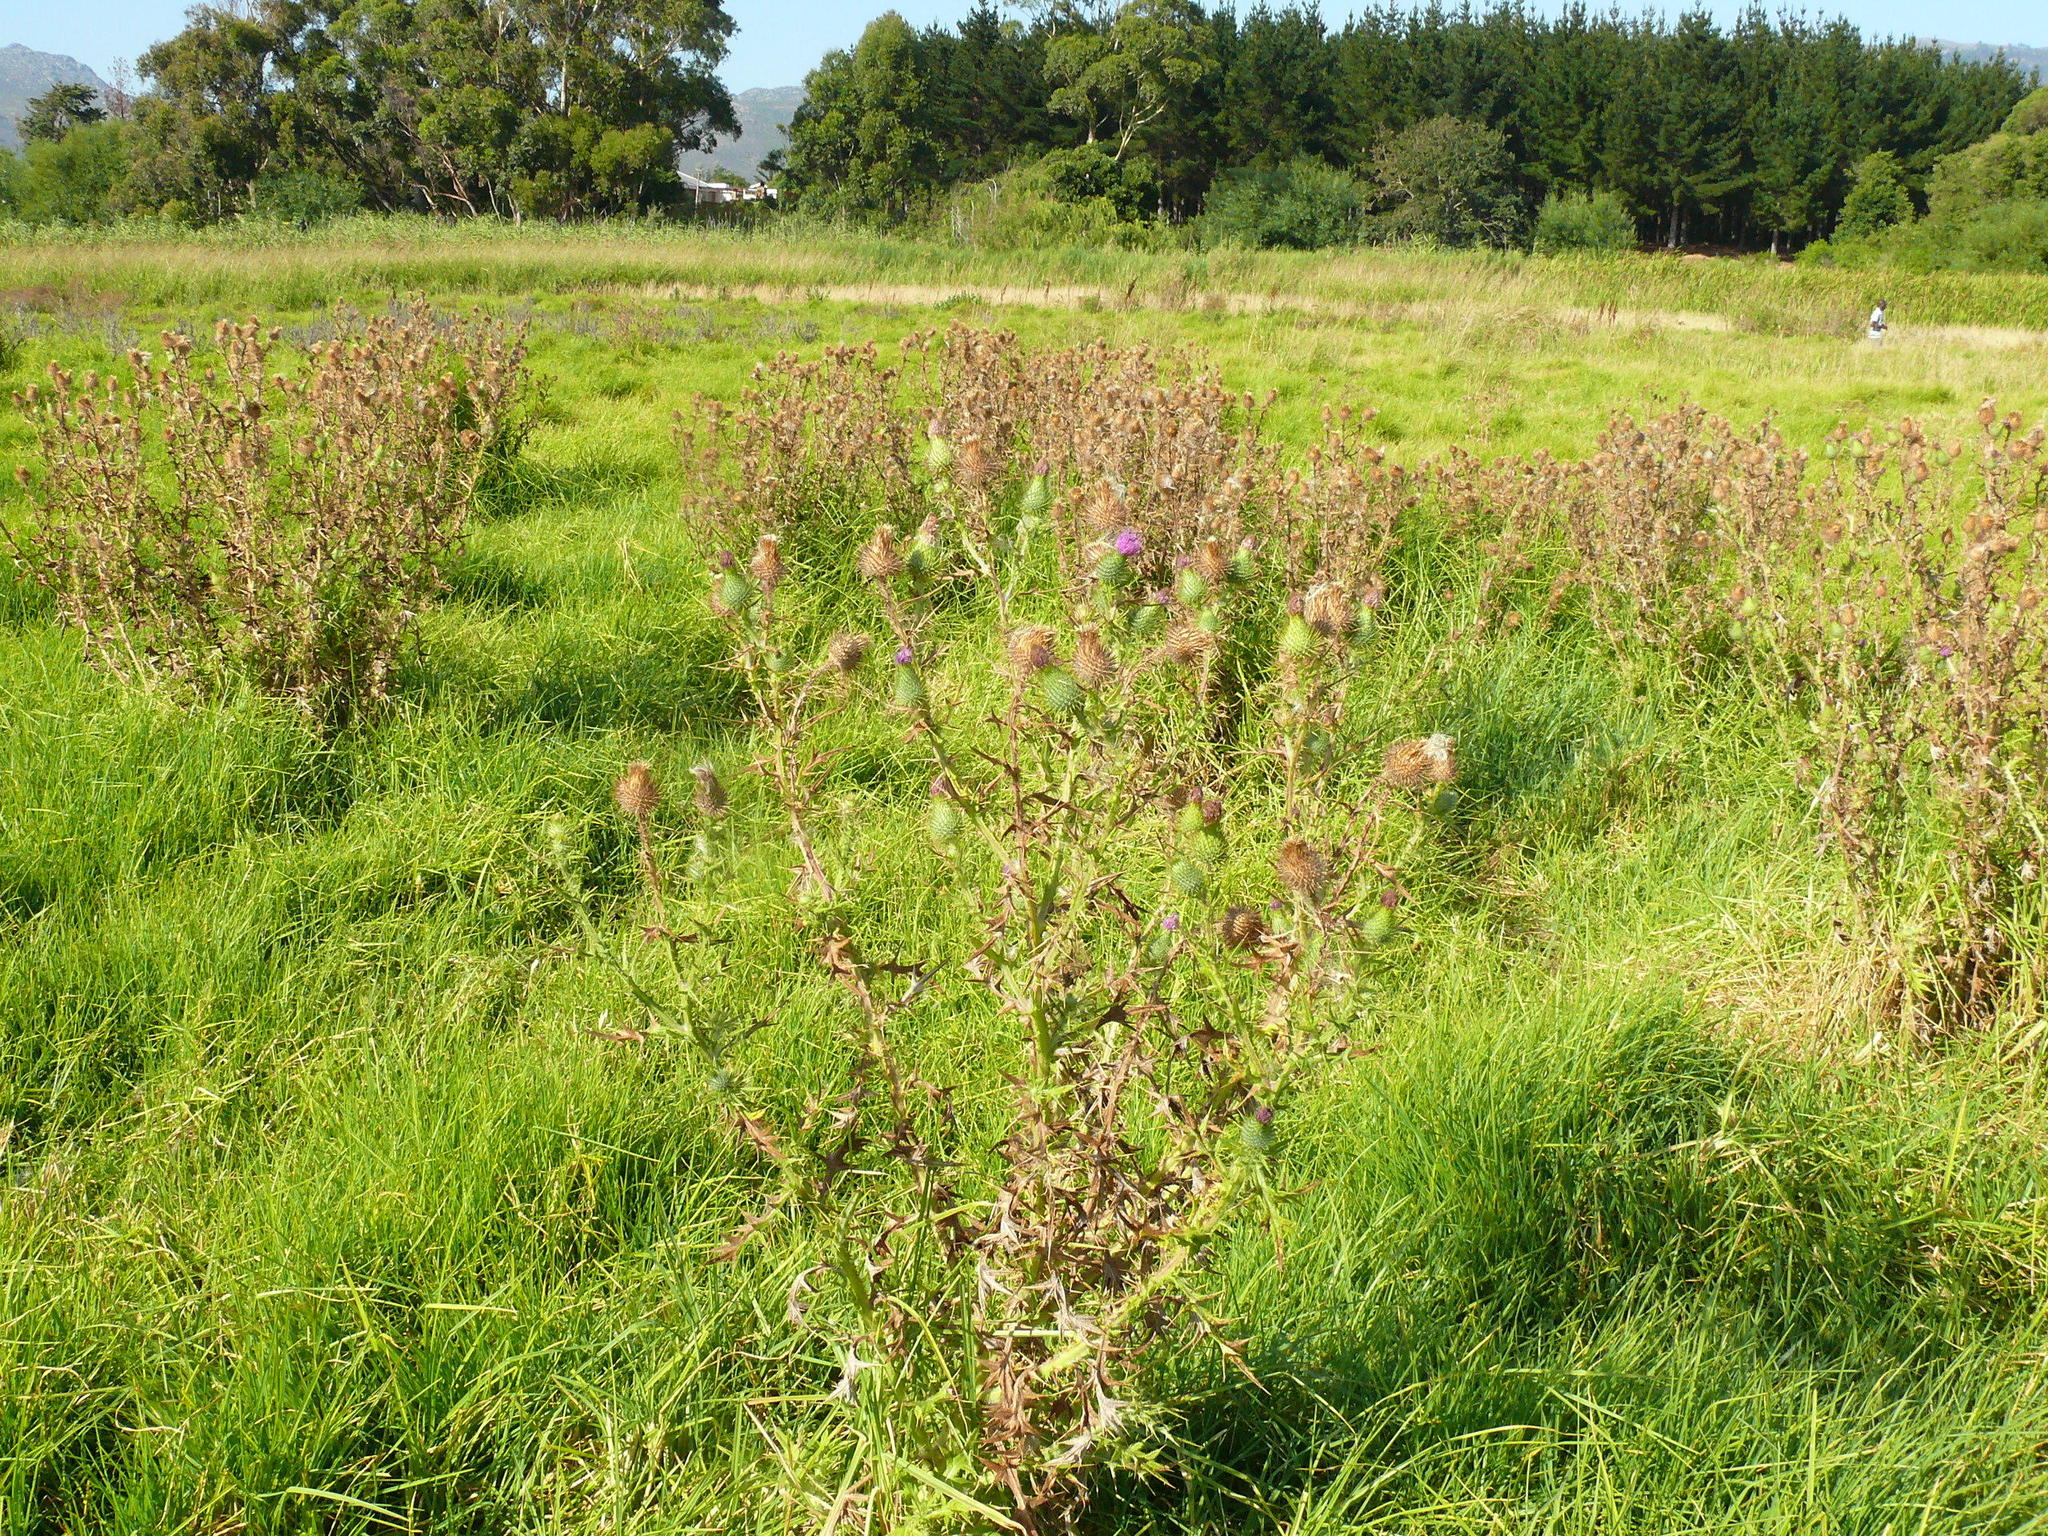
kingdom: Plantae
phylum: Tracheophyta
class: Magnoliopsida
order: Asterales
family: Asteraceae
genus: Cirsium
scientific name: Cirsium vulgare
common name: Bull thistle
